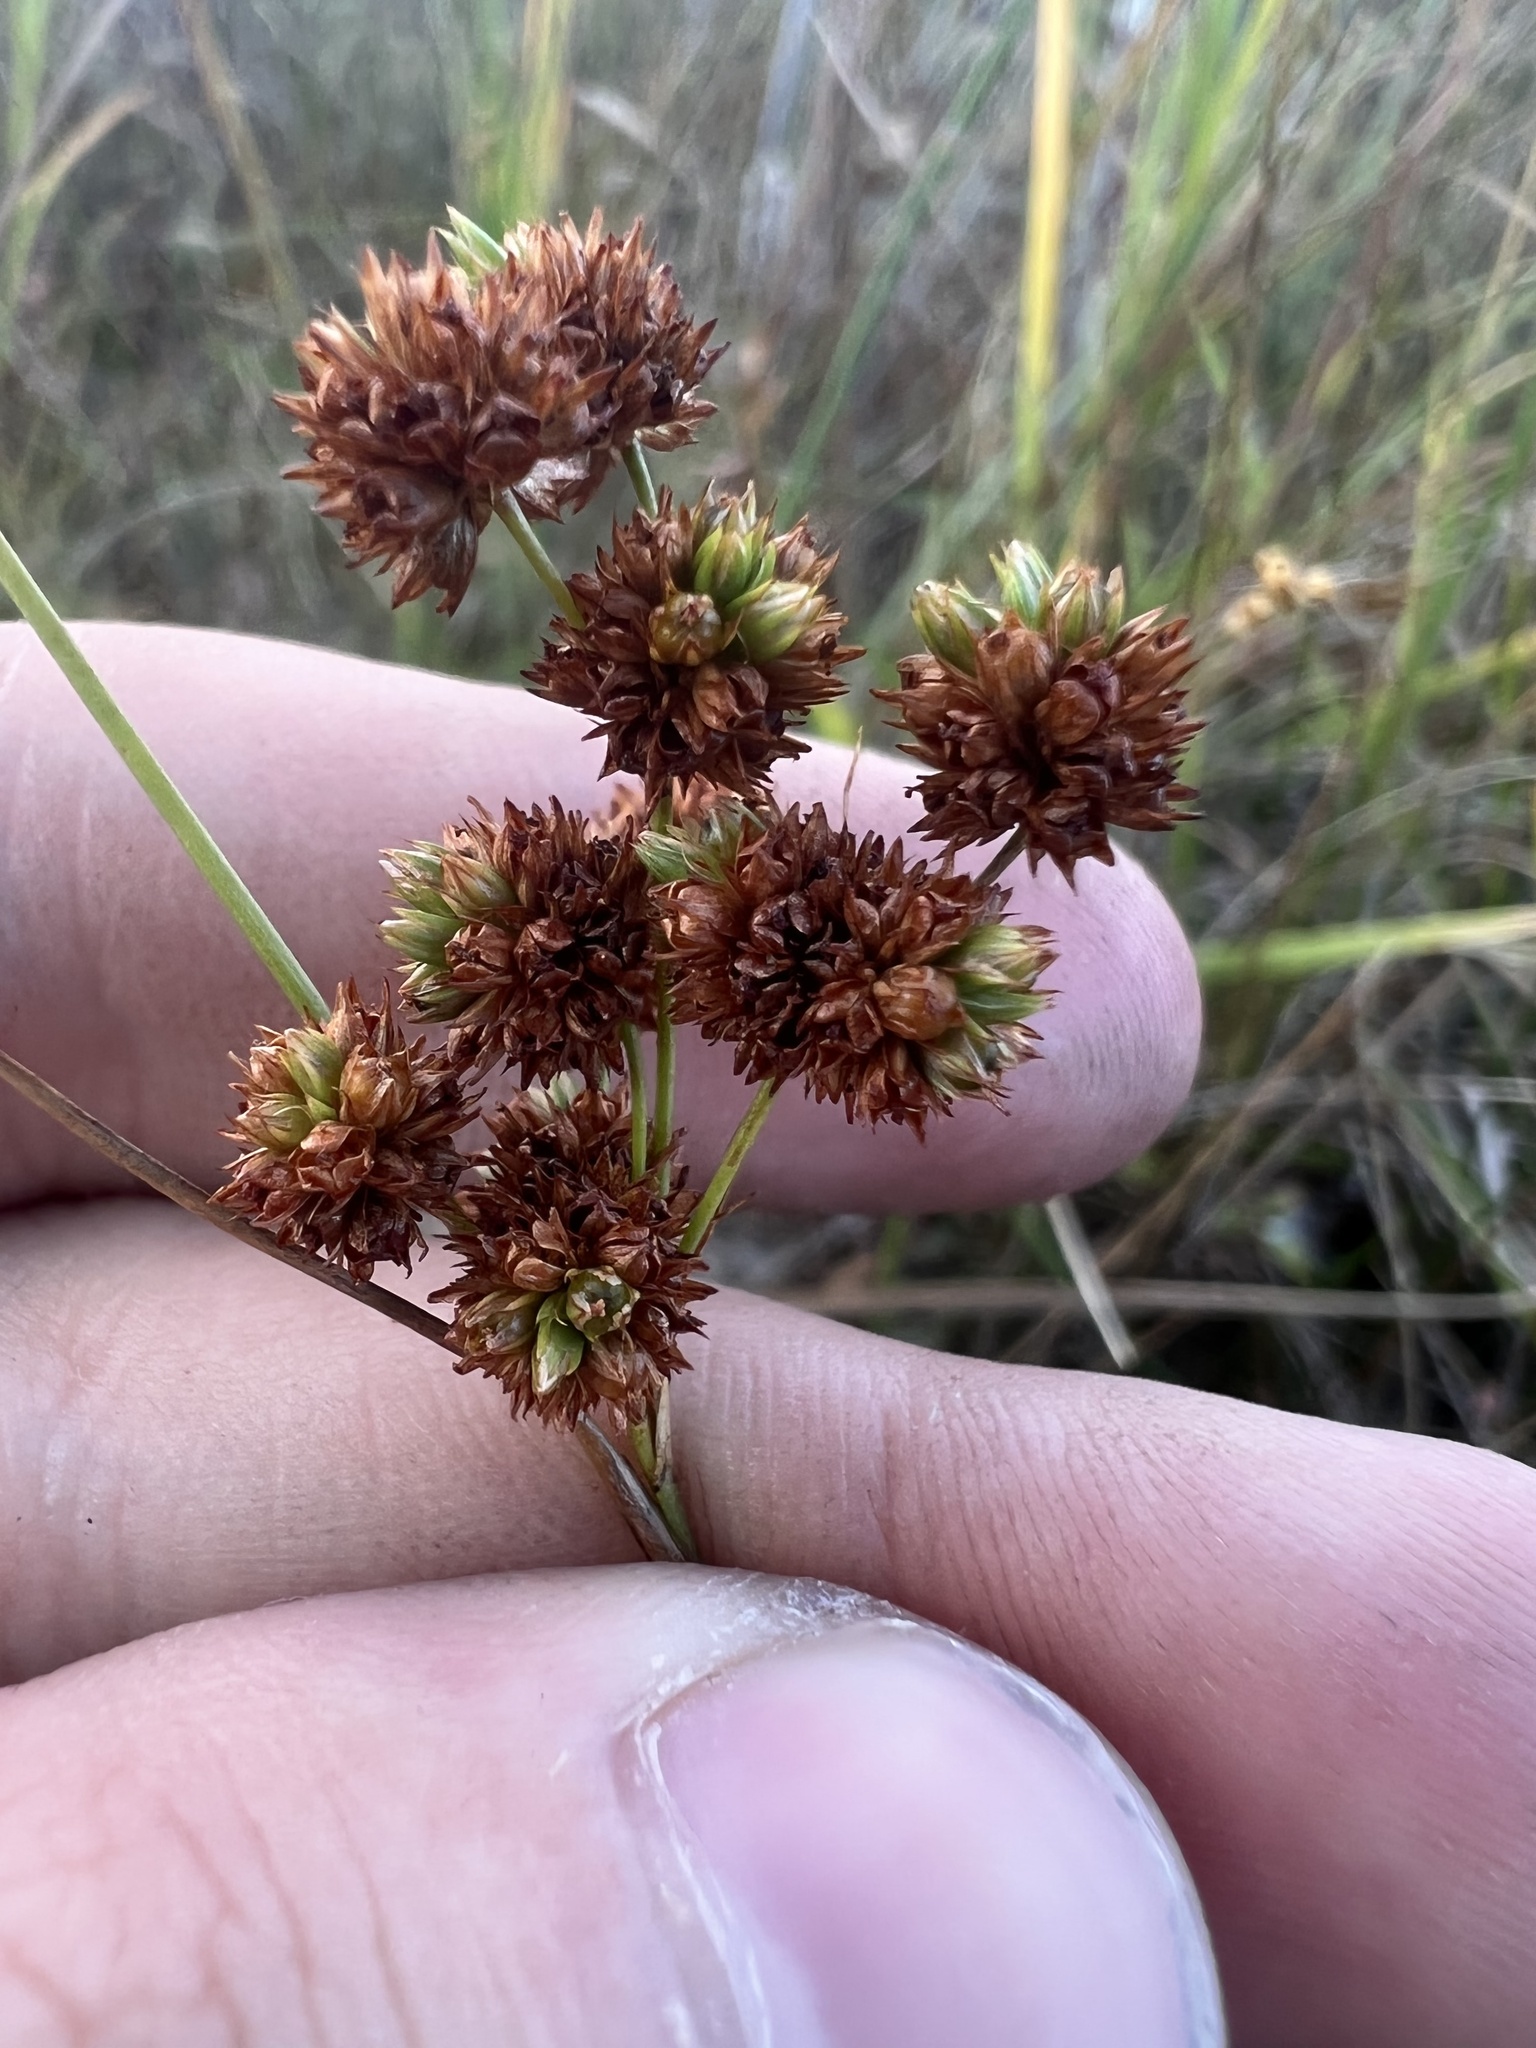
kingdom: Plantae
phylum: Tracheophyta
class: Liliopsida
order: Poales
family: Juncaceae
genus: Juncus
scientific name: Juncus marginatus
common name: Grass-leaf rush
